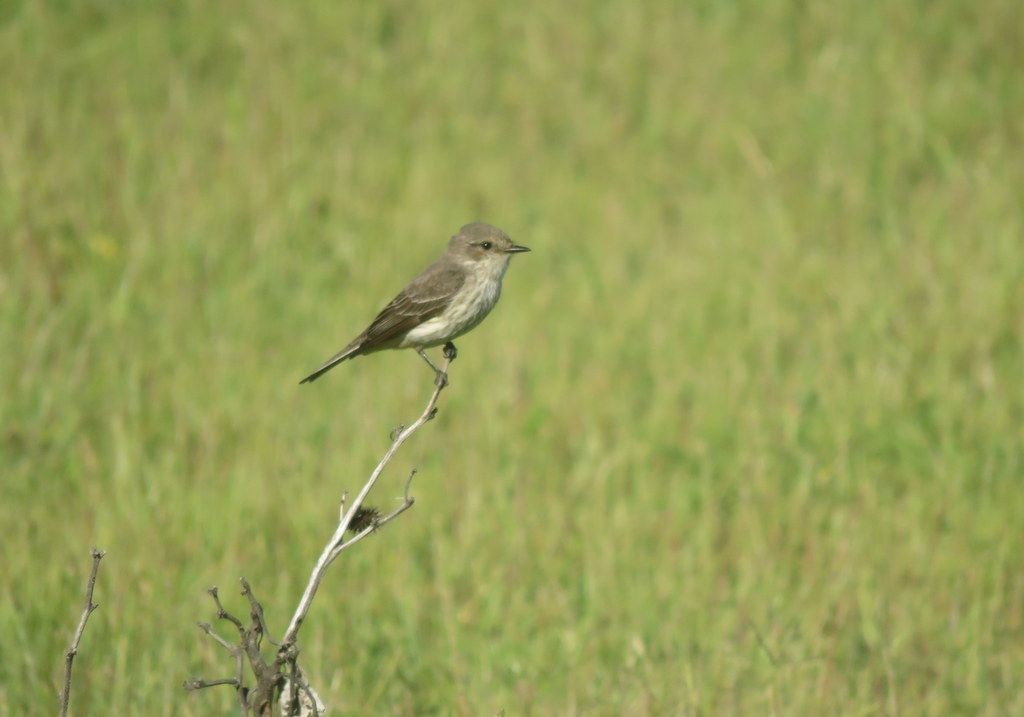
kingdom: Animalia
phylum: Chordata
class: Aves
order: Passeriformes
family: Tyrannidae
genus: Pyrocephalus
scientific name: Pyrocephalus rubinus
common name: Vermilion flycatcher
